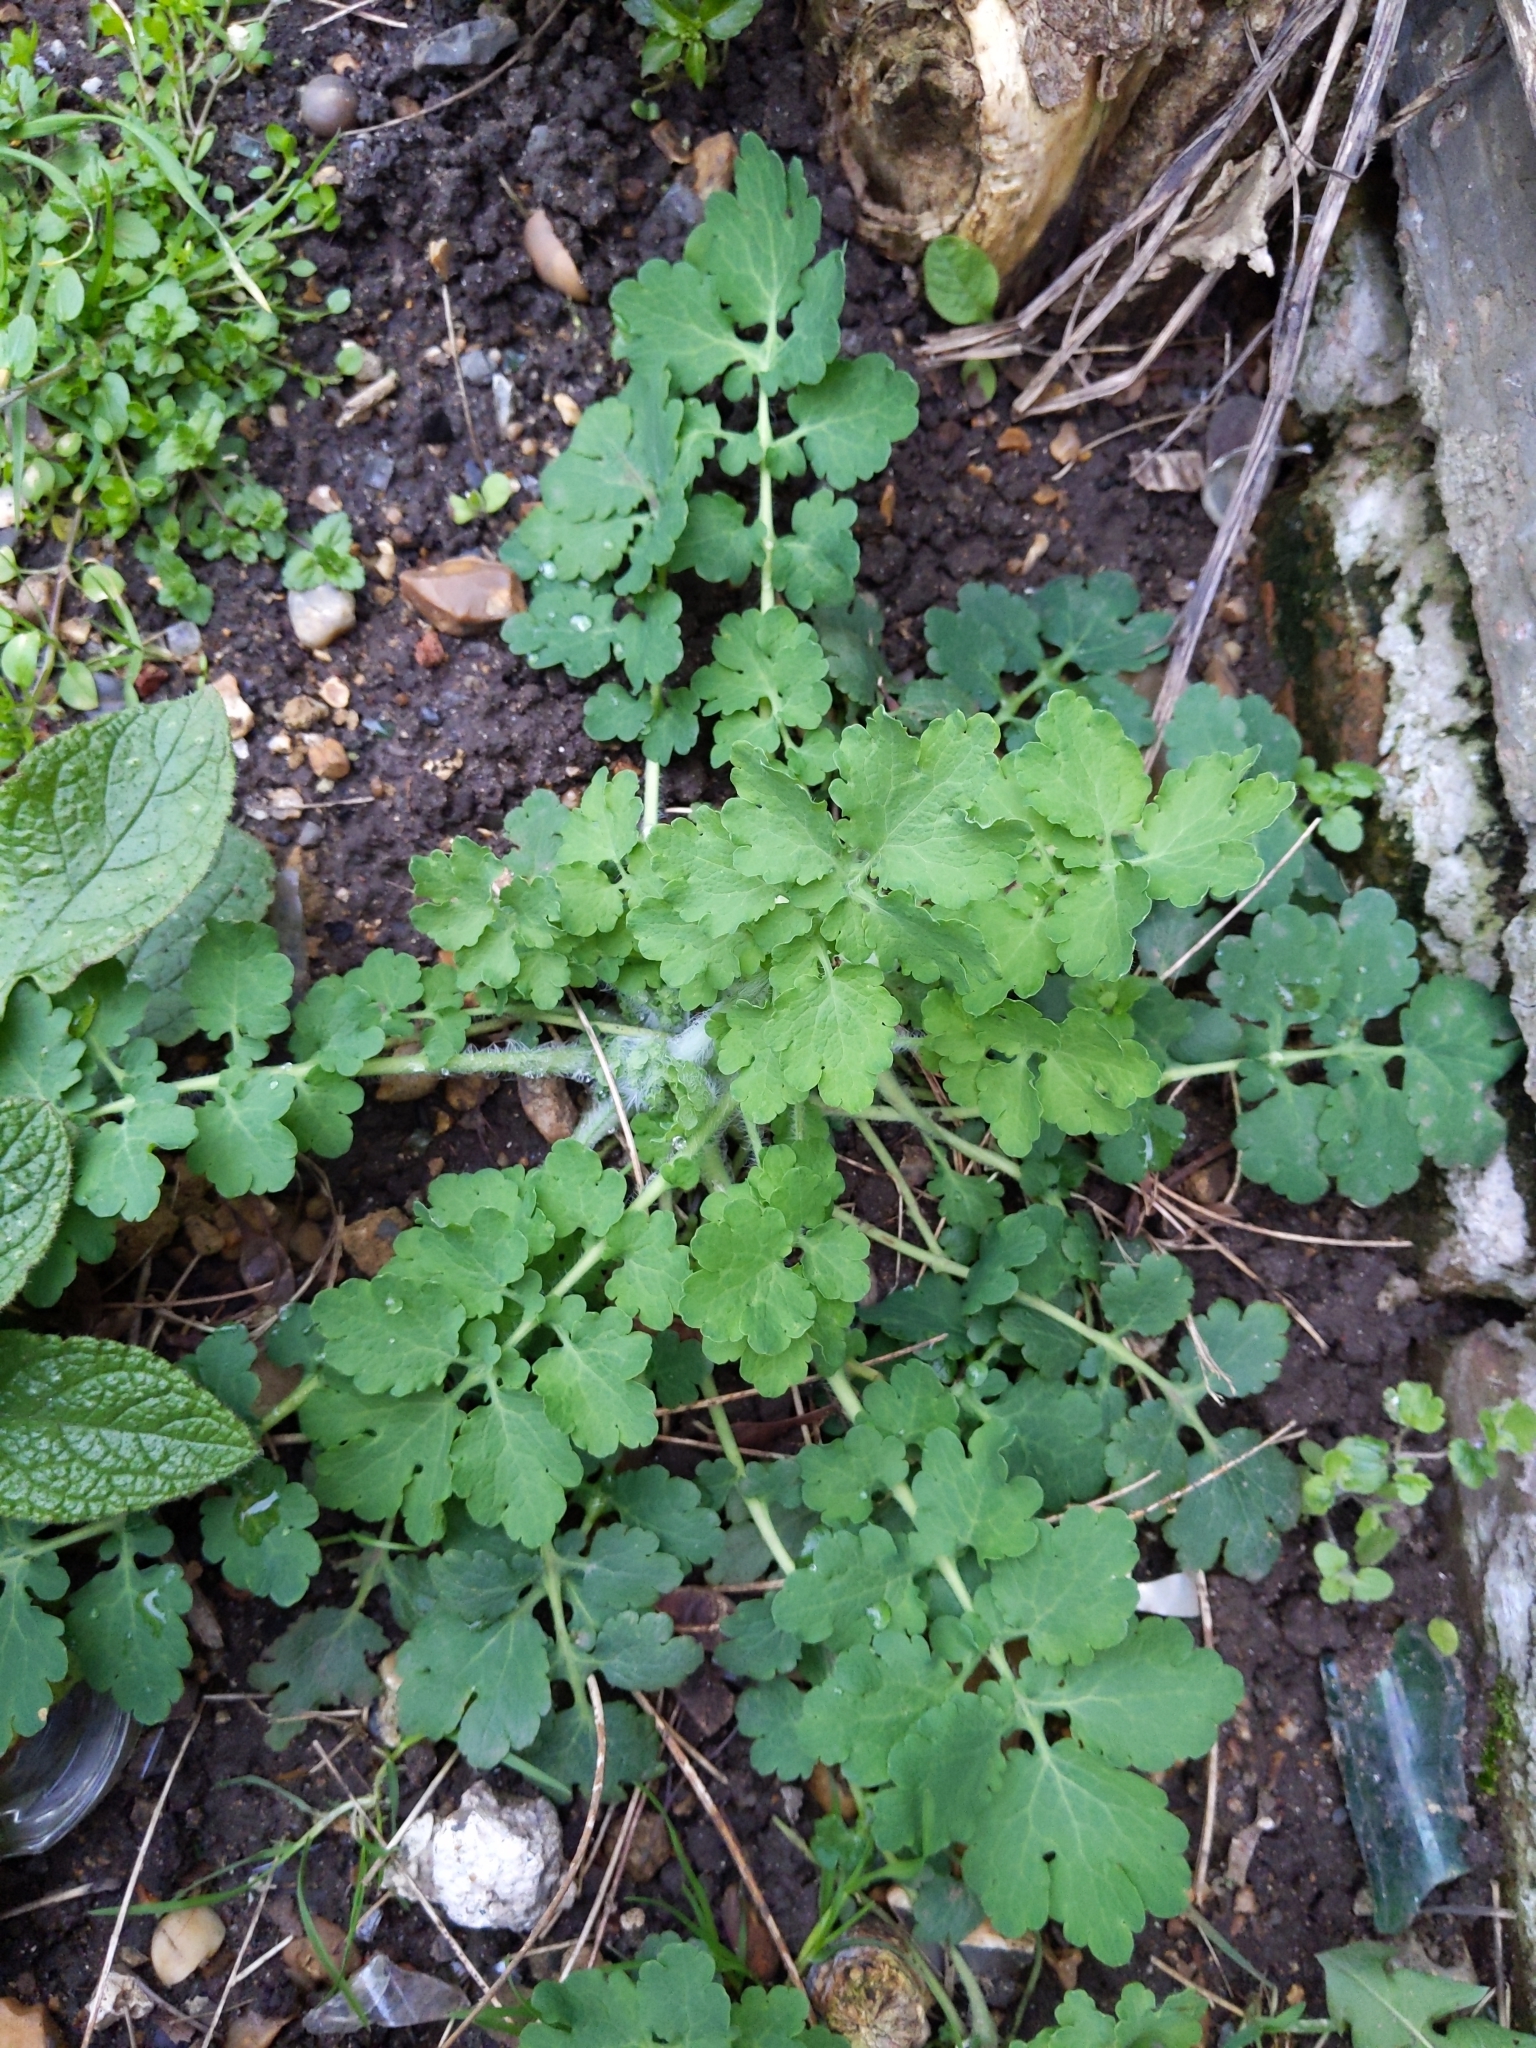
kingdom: Plantae
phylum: Tracheophyta
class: Magnoliopsida
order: Ranunculales
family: Papaveraceae
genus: Chelidonium
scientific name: Chelidonium majus
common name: Greater celandine
